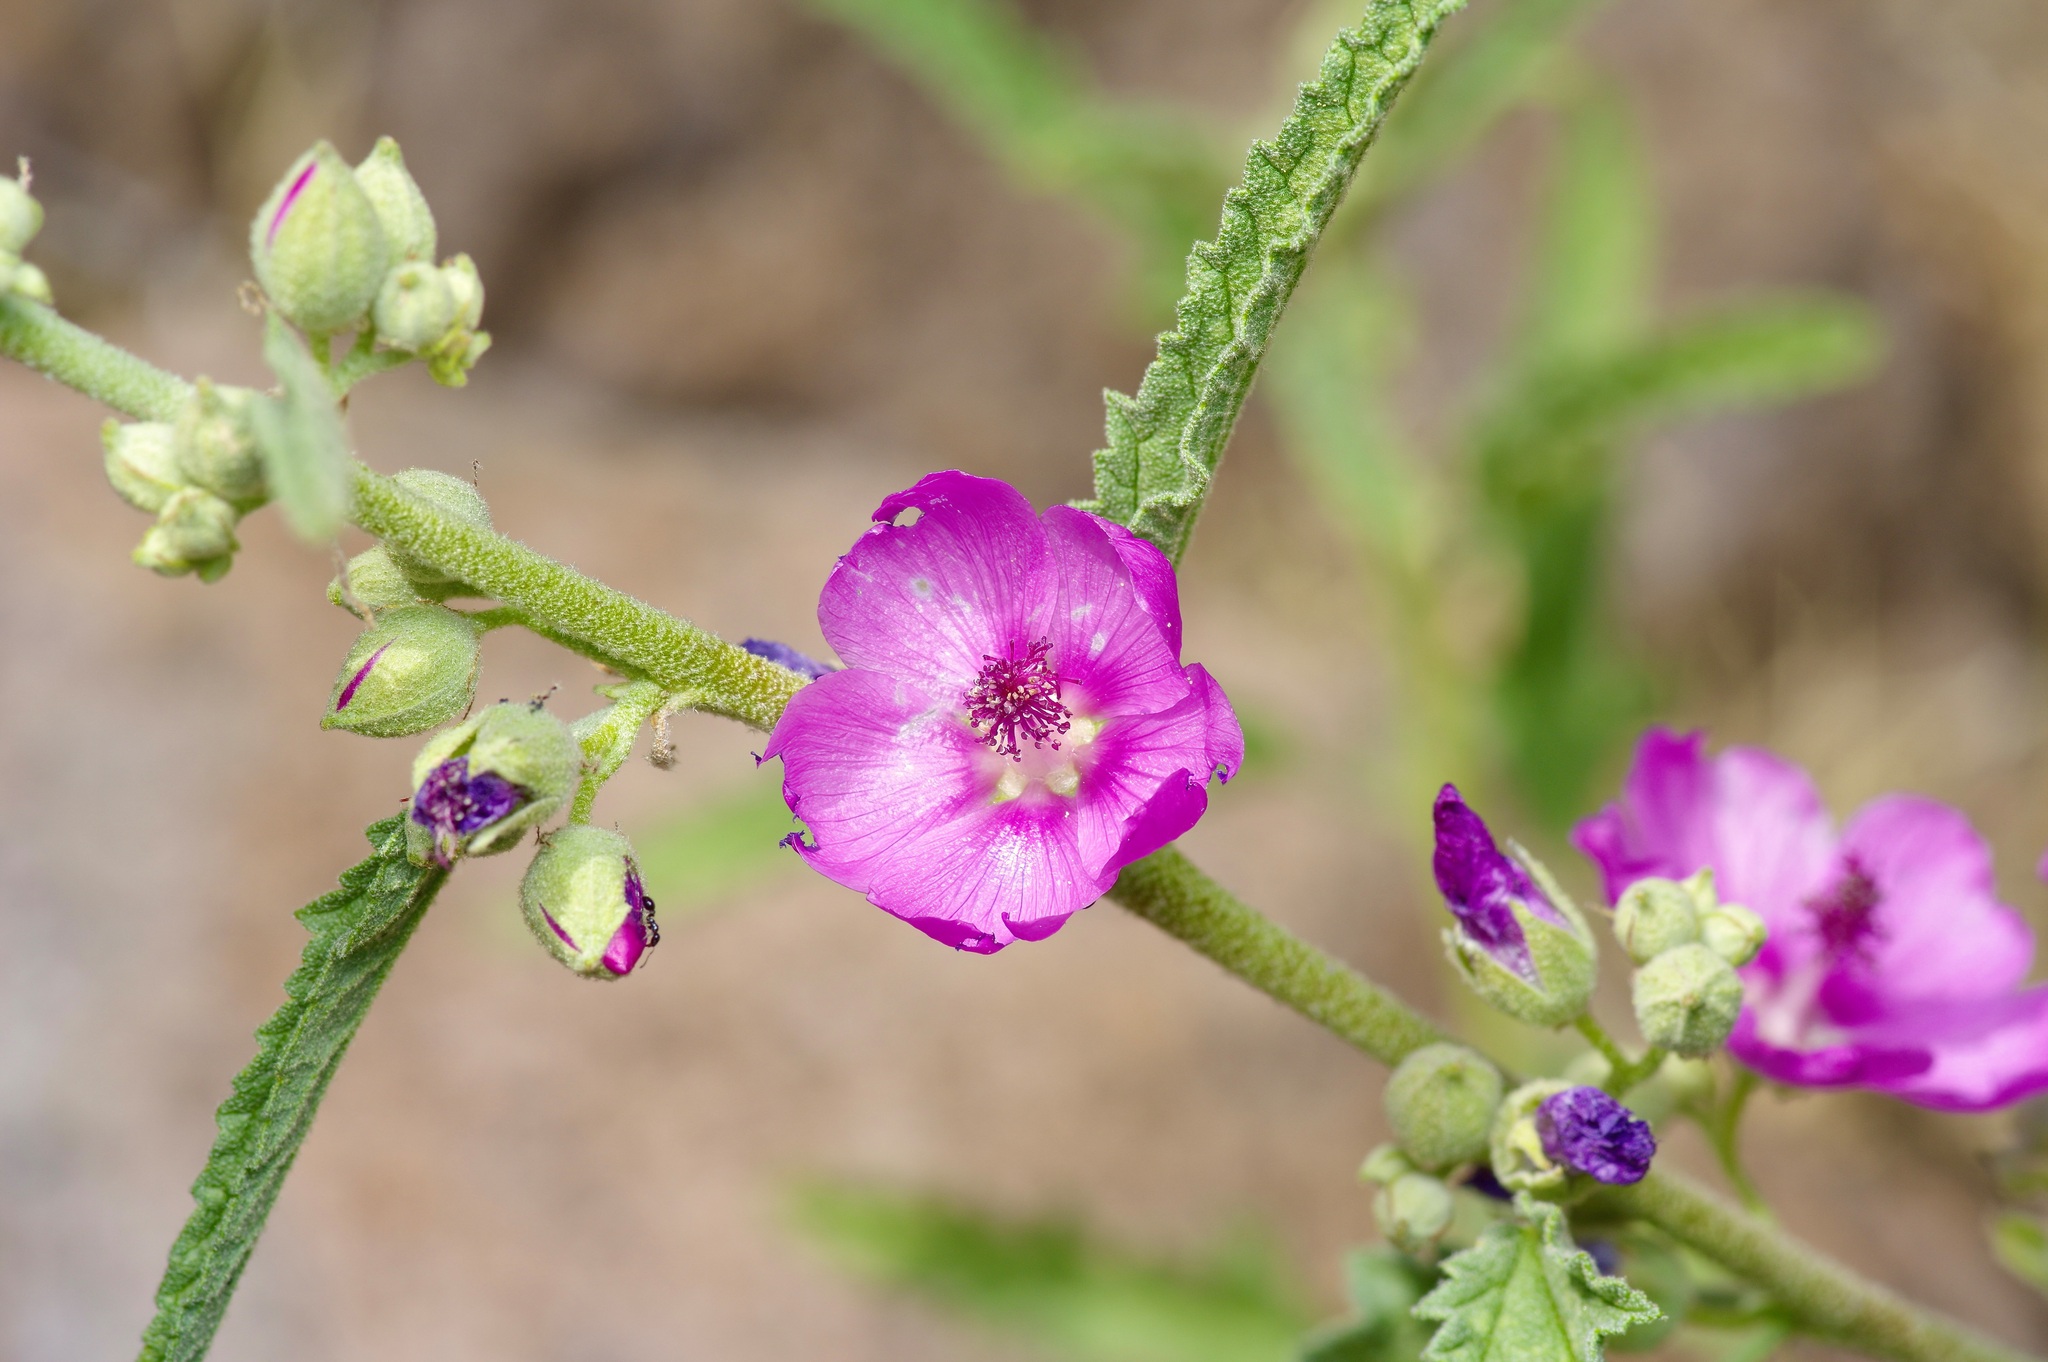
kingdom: Plantae
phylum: Tracheophyta
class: Magnoliopsida
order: Malvales
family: Malvaceae
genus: Sphaeralcea
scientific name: Sphaeralcea angustifolia
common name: Copper globe-mallow
